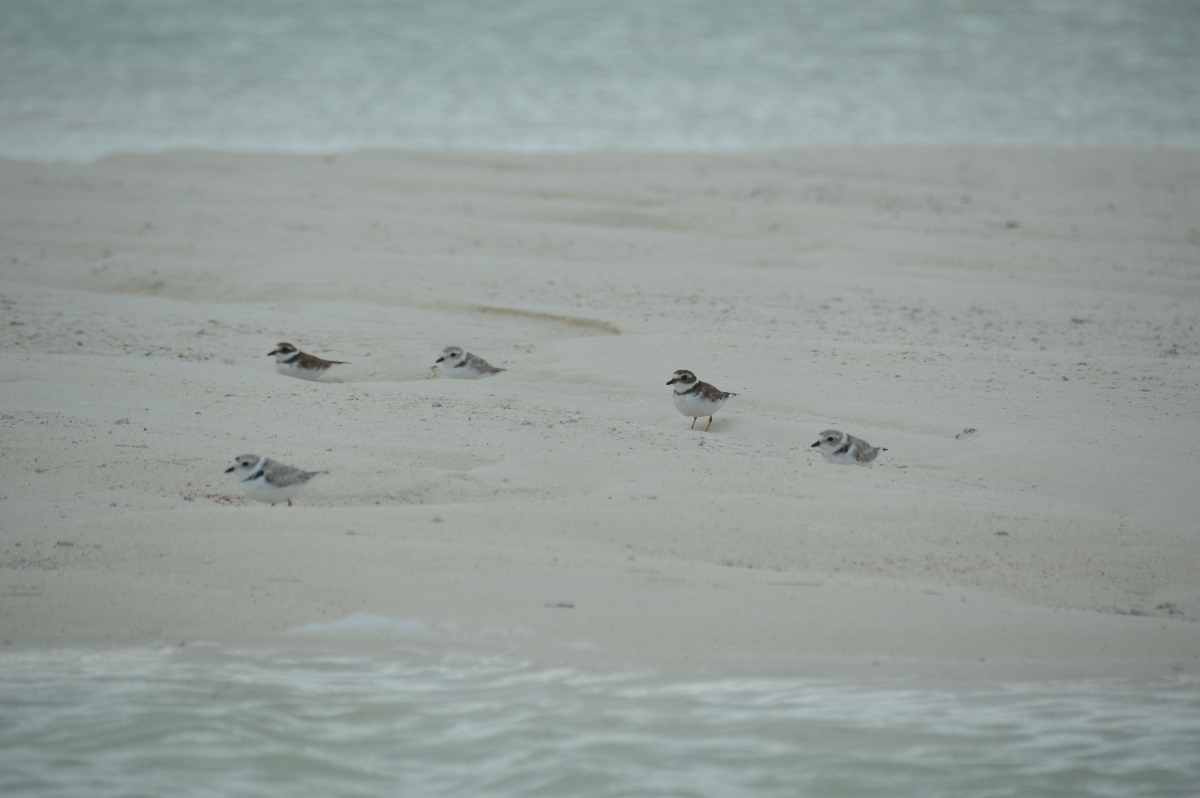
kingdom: Animalia
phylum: Chordata
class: Aves
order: Charadriiformes
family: Charadriidae
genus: Charadrius
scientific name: Charadrius melodus
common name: Piping plover
